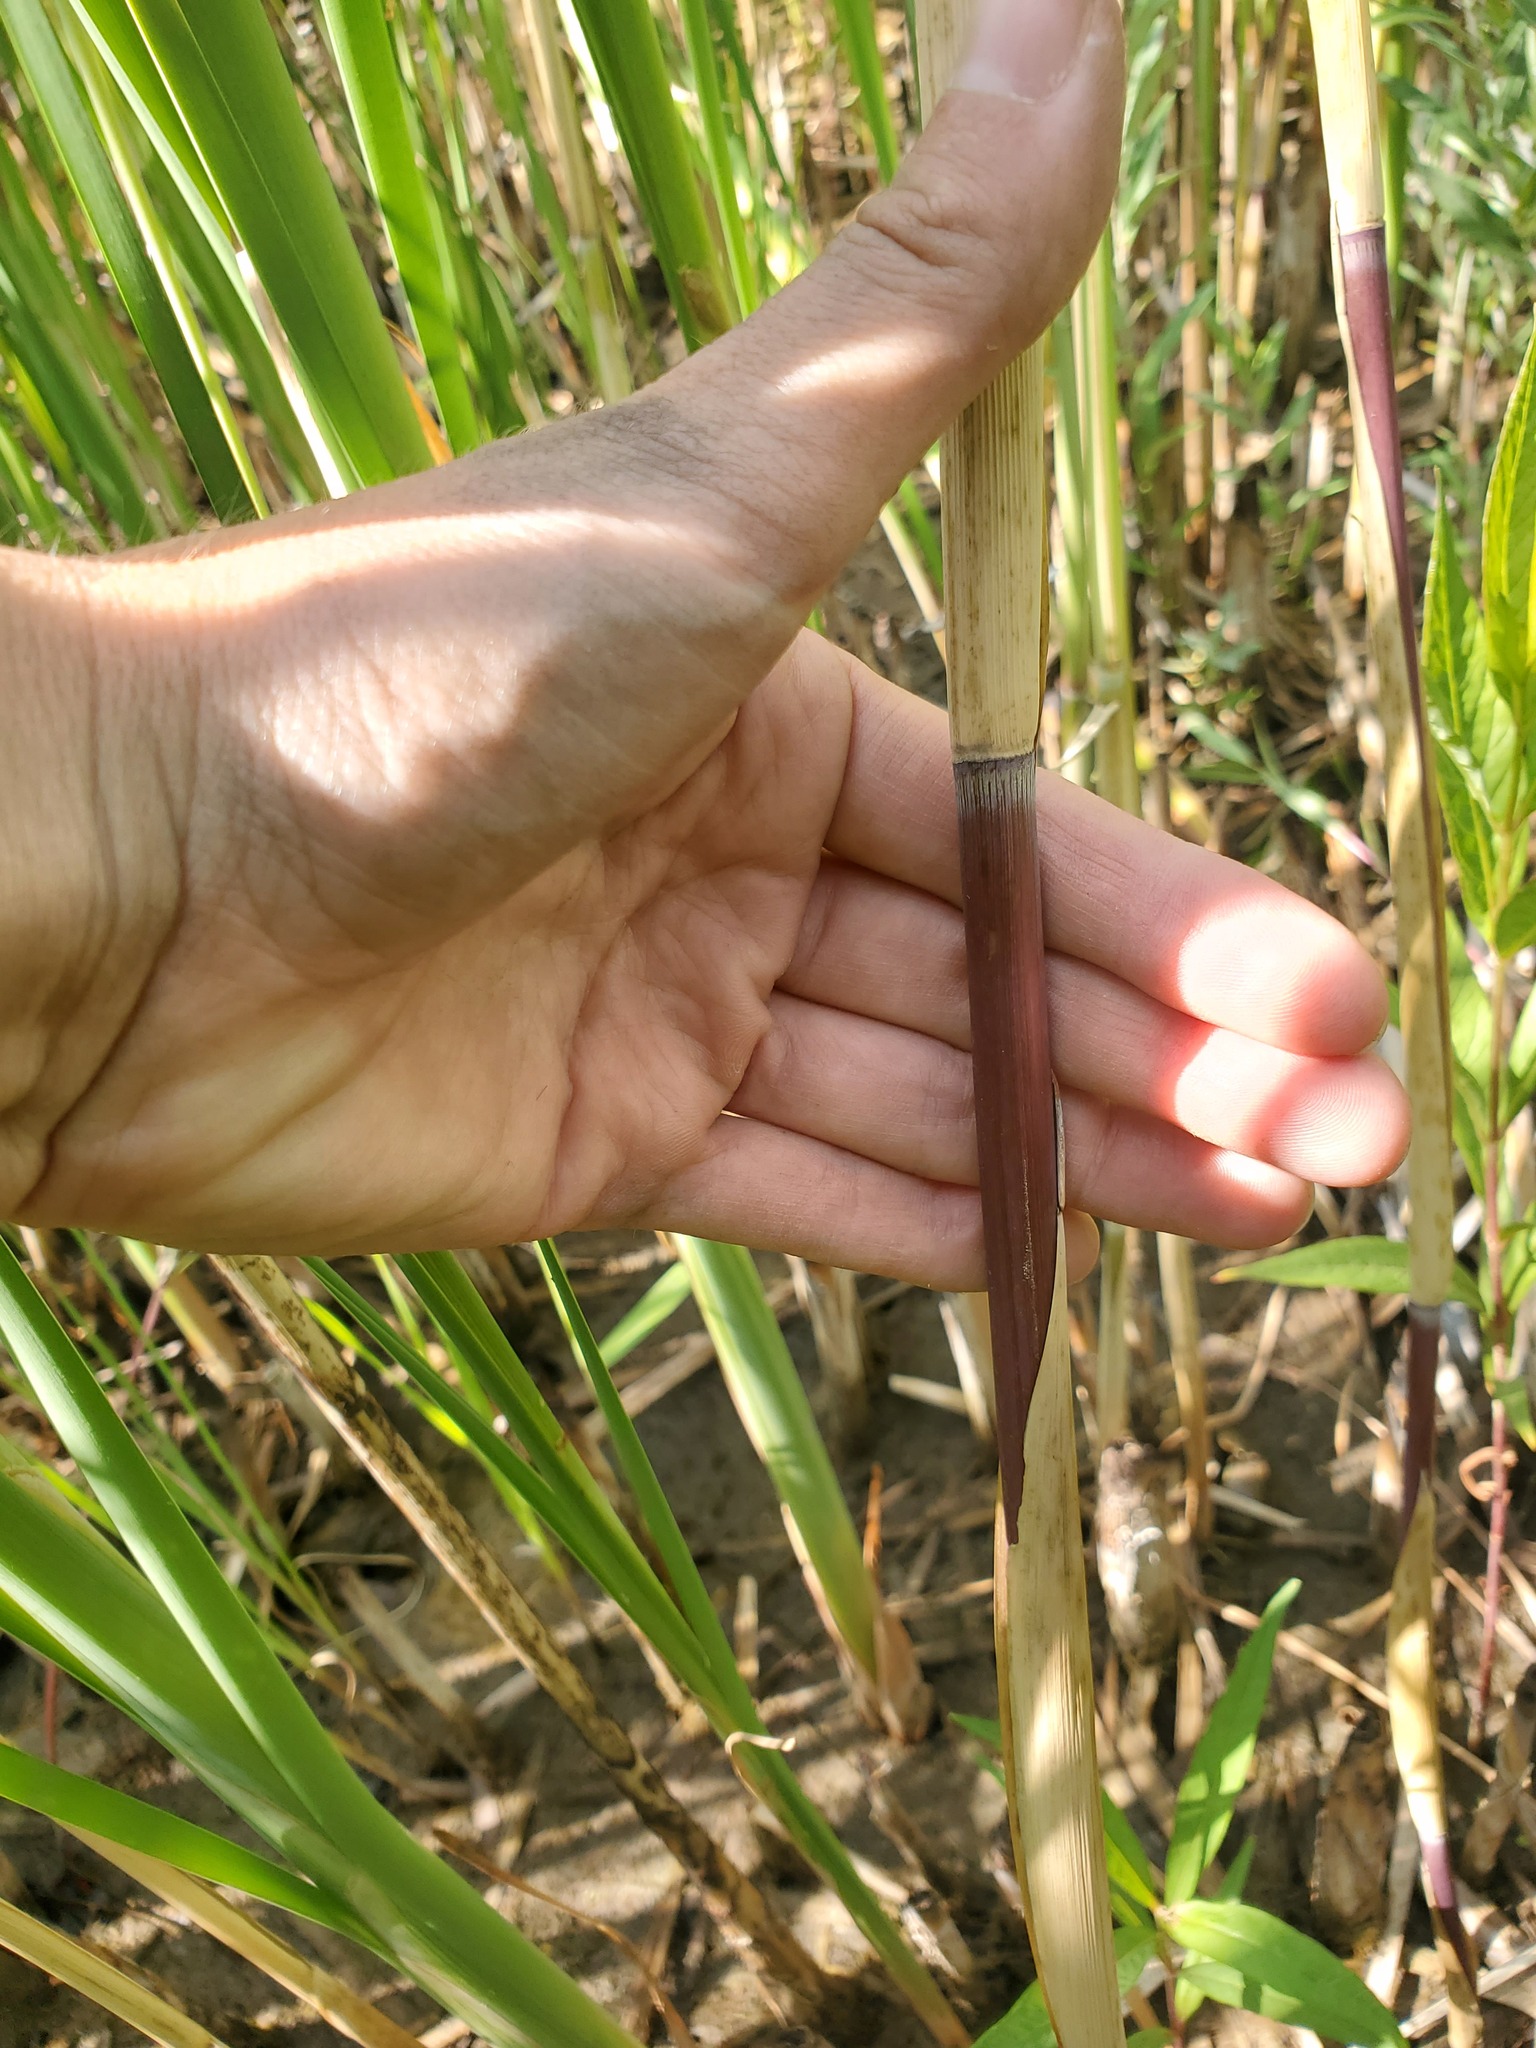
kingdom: Animalia
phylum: Arthropoda
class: Insecta
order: Lepidoptera
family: Erebidae
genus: Lymantria
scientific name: Lymantria dispar
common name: Gypsy moth
